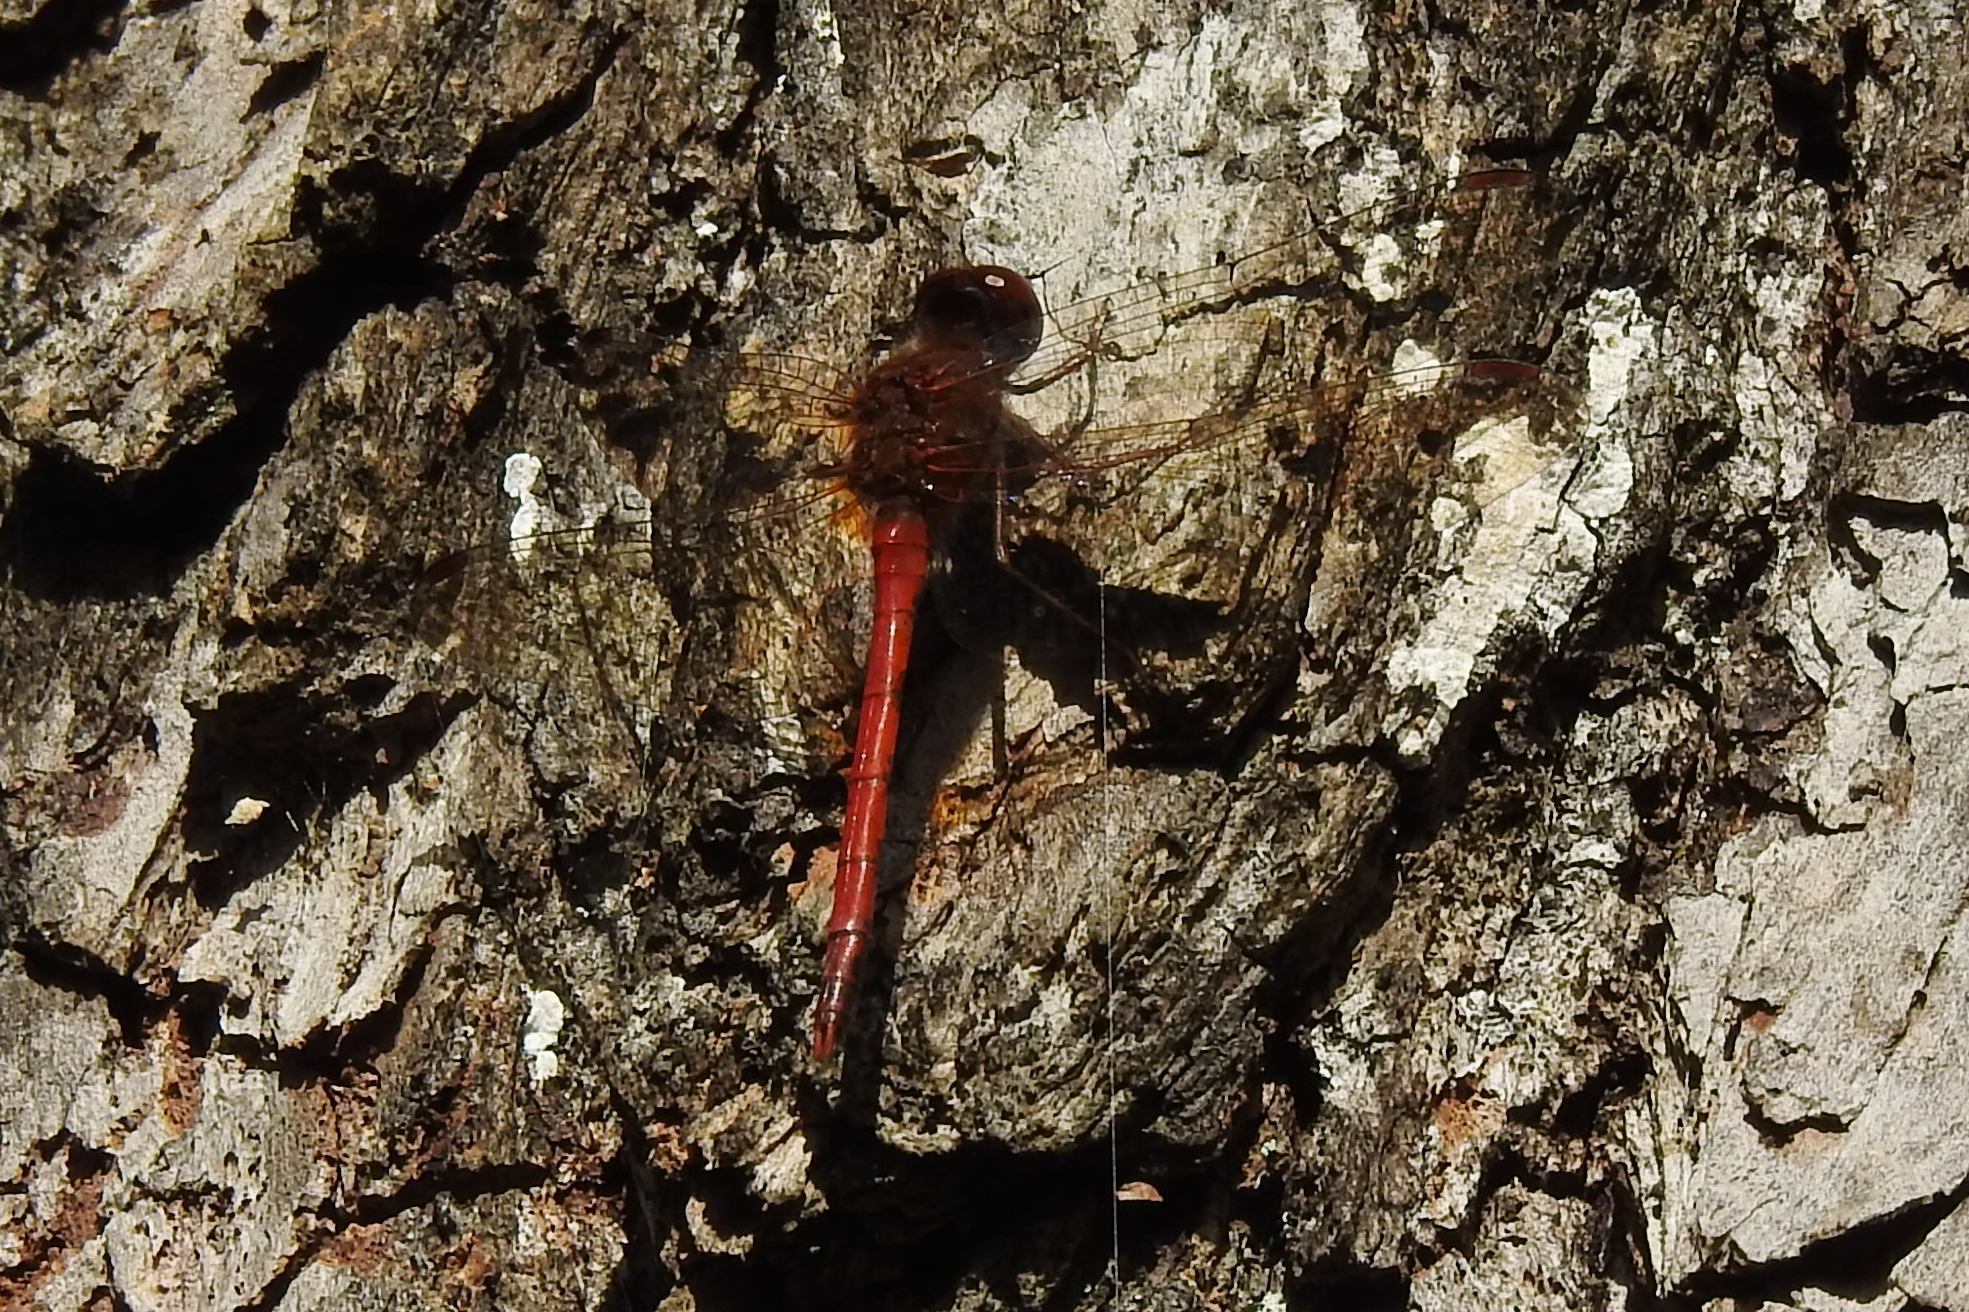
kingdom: Animalia
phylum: Arthropoda
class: Insecta
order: Odonata
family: Libellulidae
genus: Sympetrum
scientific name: Sympetrum vicinum
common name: Autumn meadowhawk
